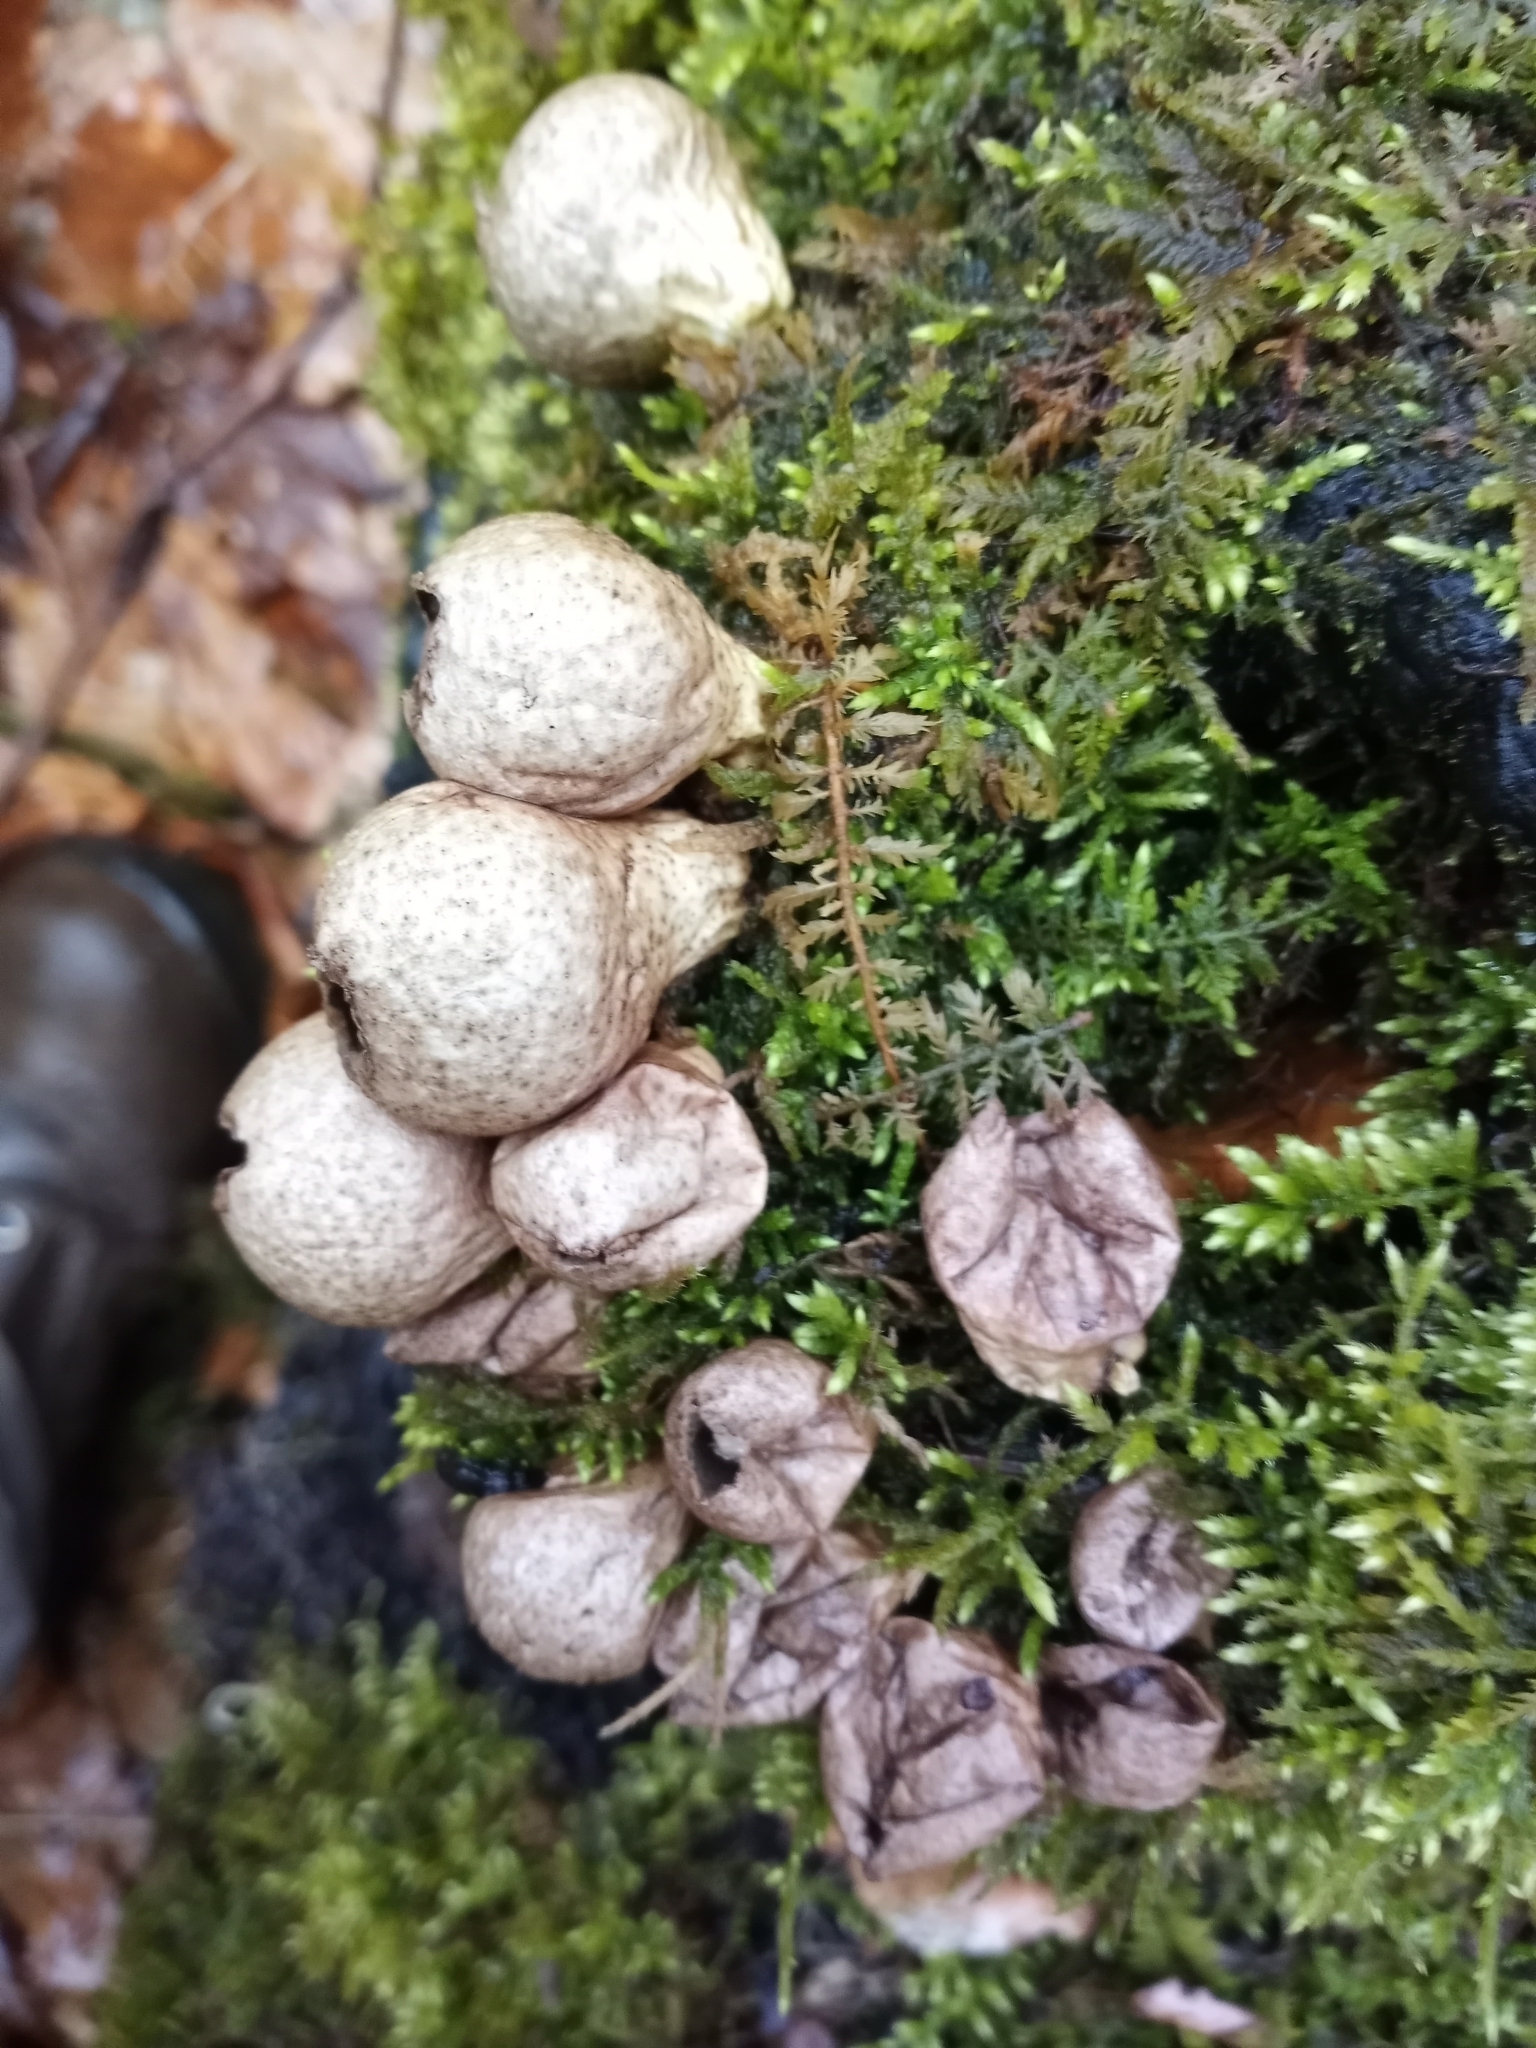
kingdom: Fungi
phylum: Basidiomycota
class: Agaricomycetes
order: Agaricales
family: Lycoperdaceae
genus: Apioperdon
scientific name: Apioperdon pyriforme
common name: Pear-shaped puffball
